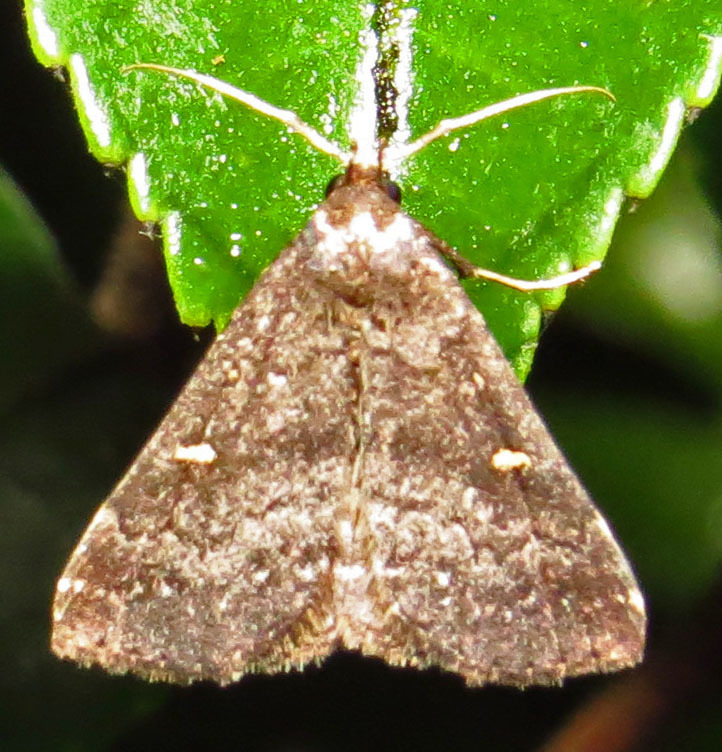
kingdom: Animalia
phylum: Arthropoda
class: Insecta
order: Lepidoptera
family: Erebidae
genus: Tetanolita
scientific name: Tetanolita mynesalis
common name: Smoky tetanolita moth
